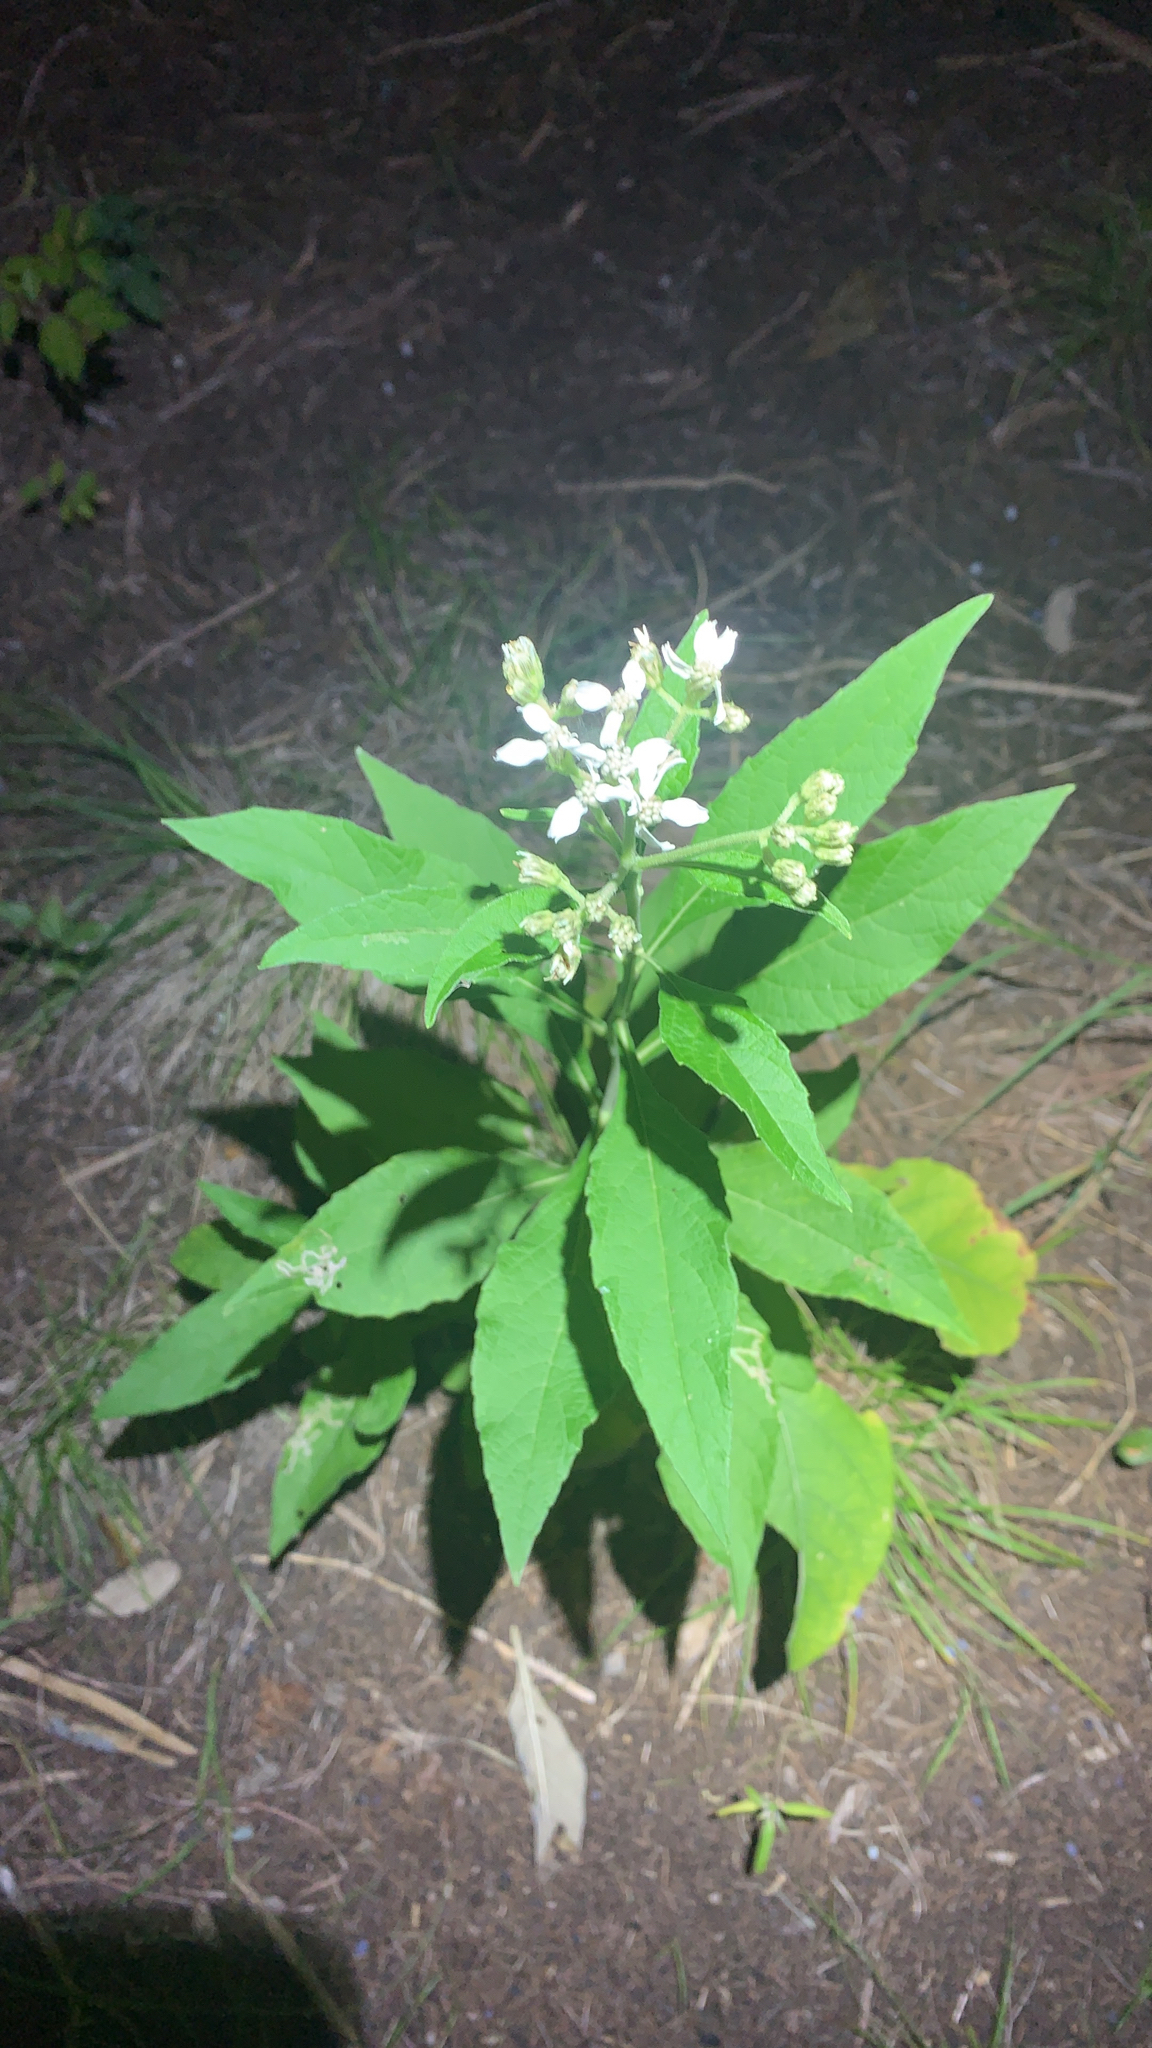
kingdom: Plantae
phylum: Tracheophyta
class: Magnoliopsida
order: Asterales
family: Asteraceae
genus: Verbesina
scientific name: Verbesina virginica
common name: Frostweed
